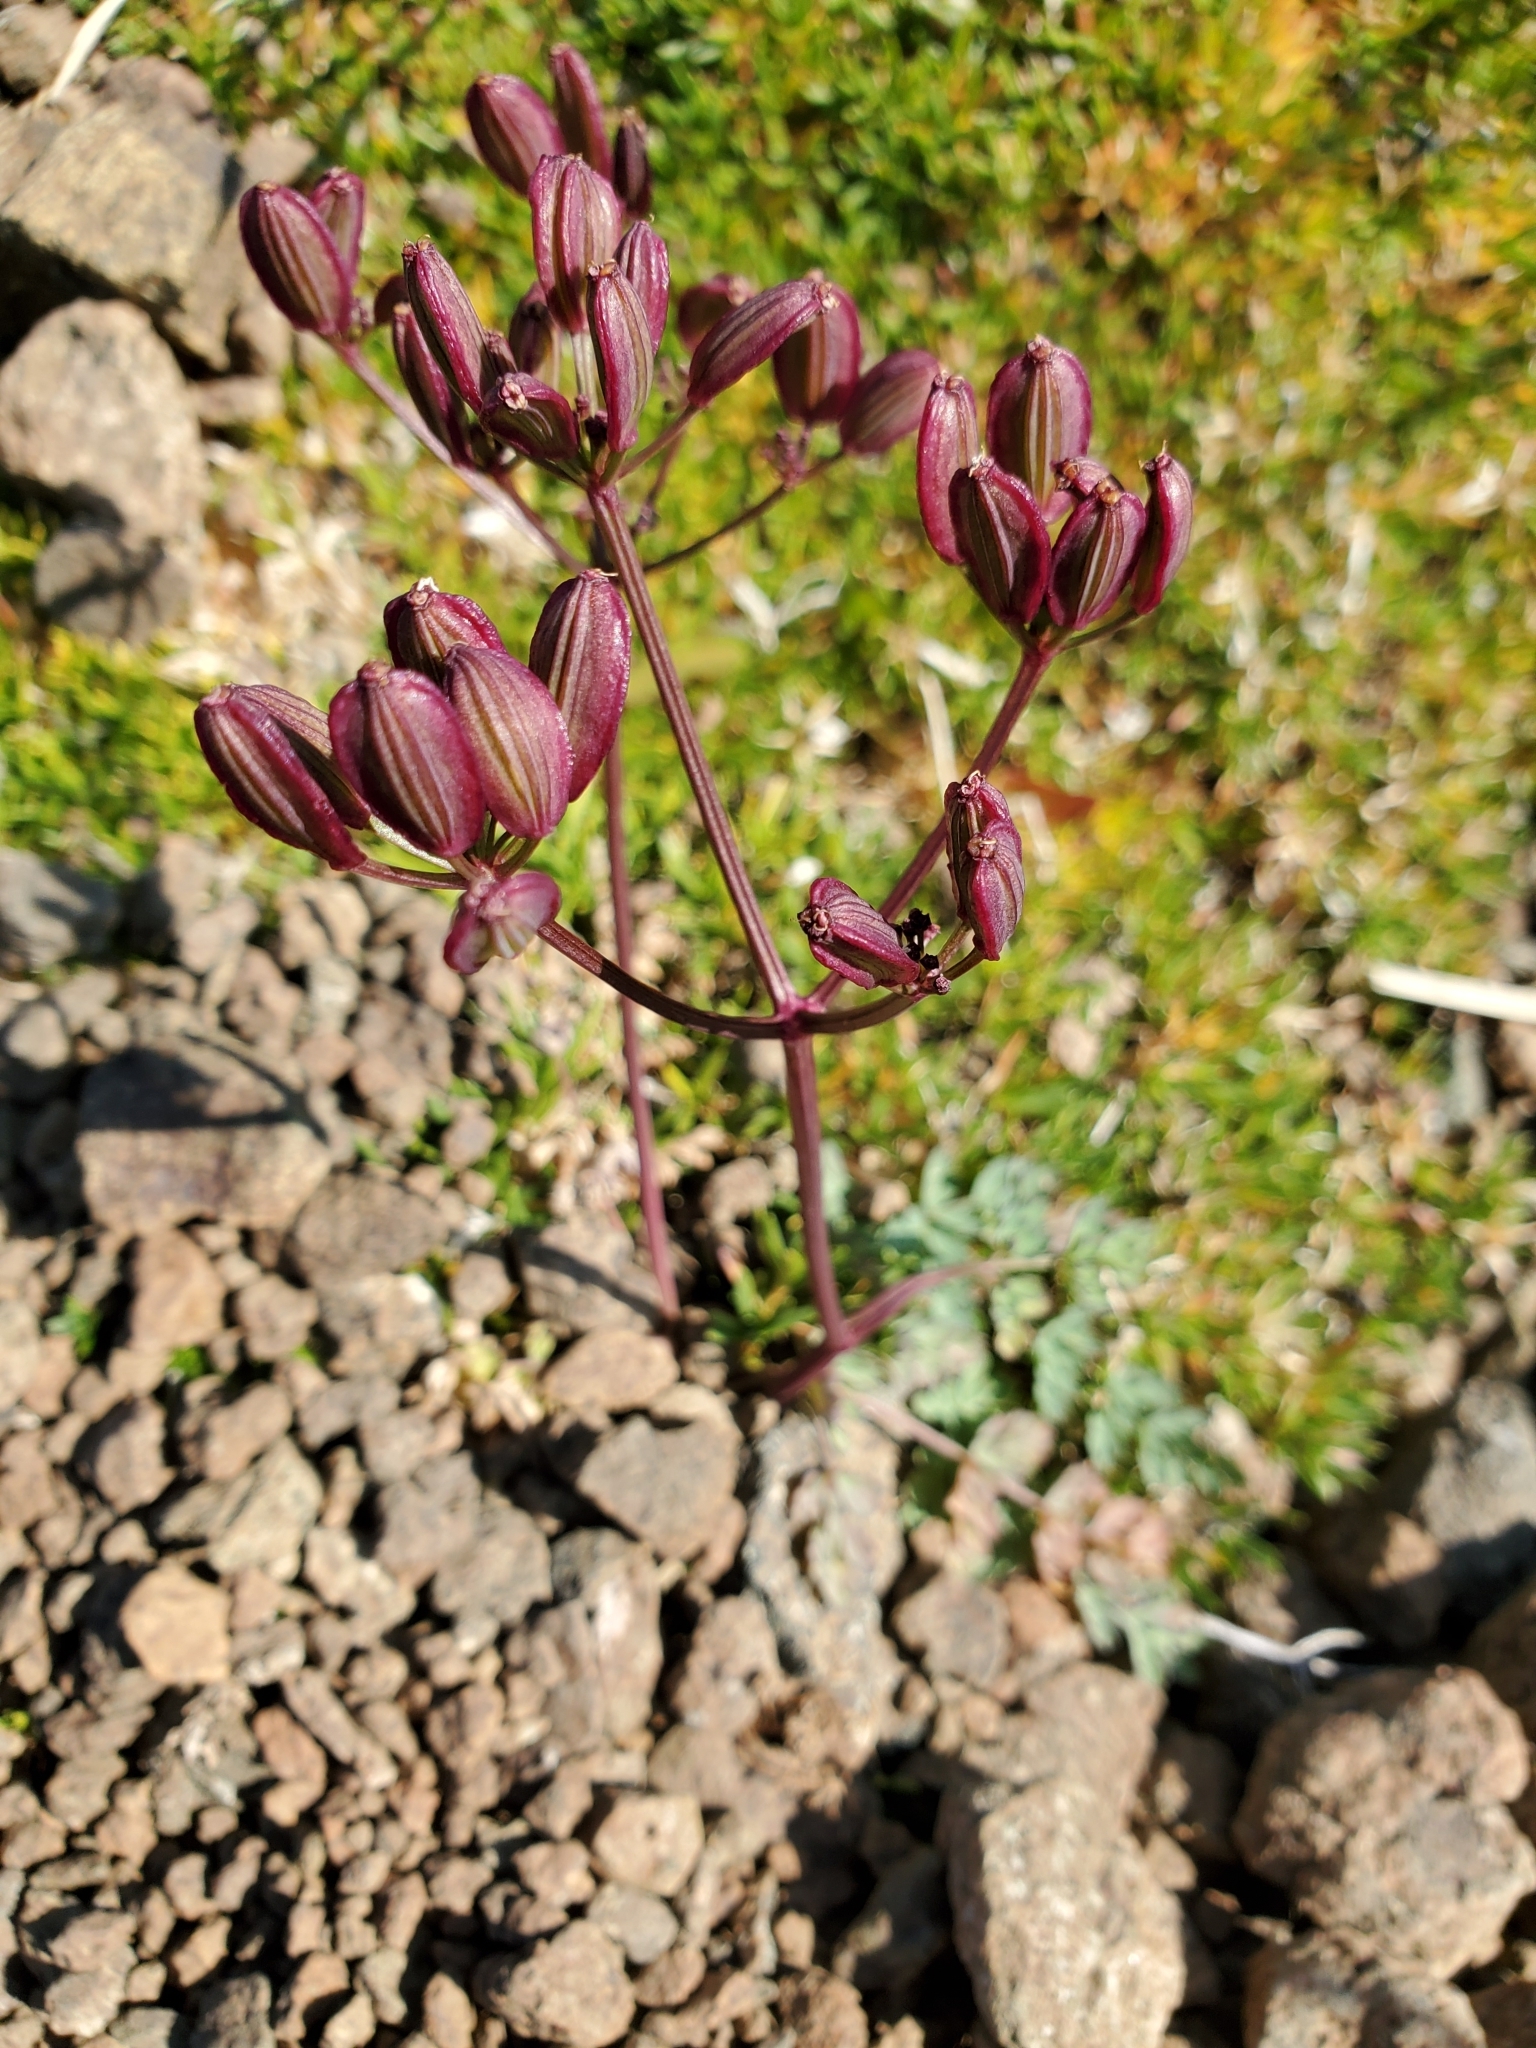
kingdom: Plantae
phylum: Tracheophyta
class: Magnoliopsida
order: Apiales
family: Apiaceae
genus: Lomatium
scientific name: Lomatium martindalei
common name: Cascade desert-parsley
